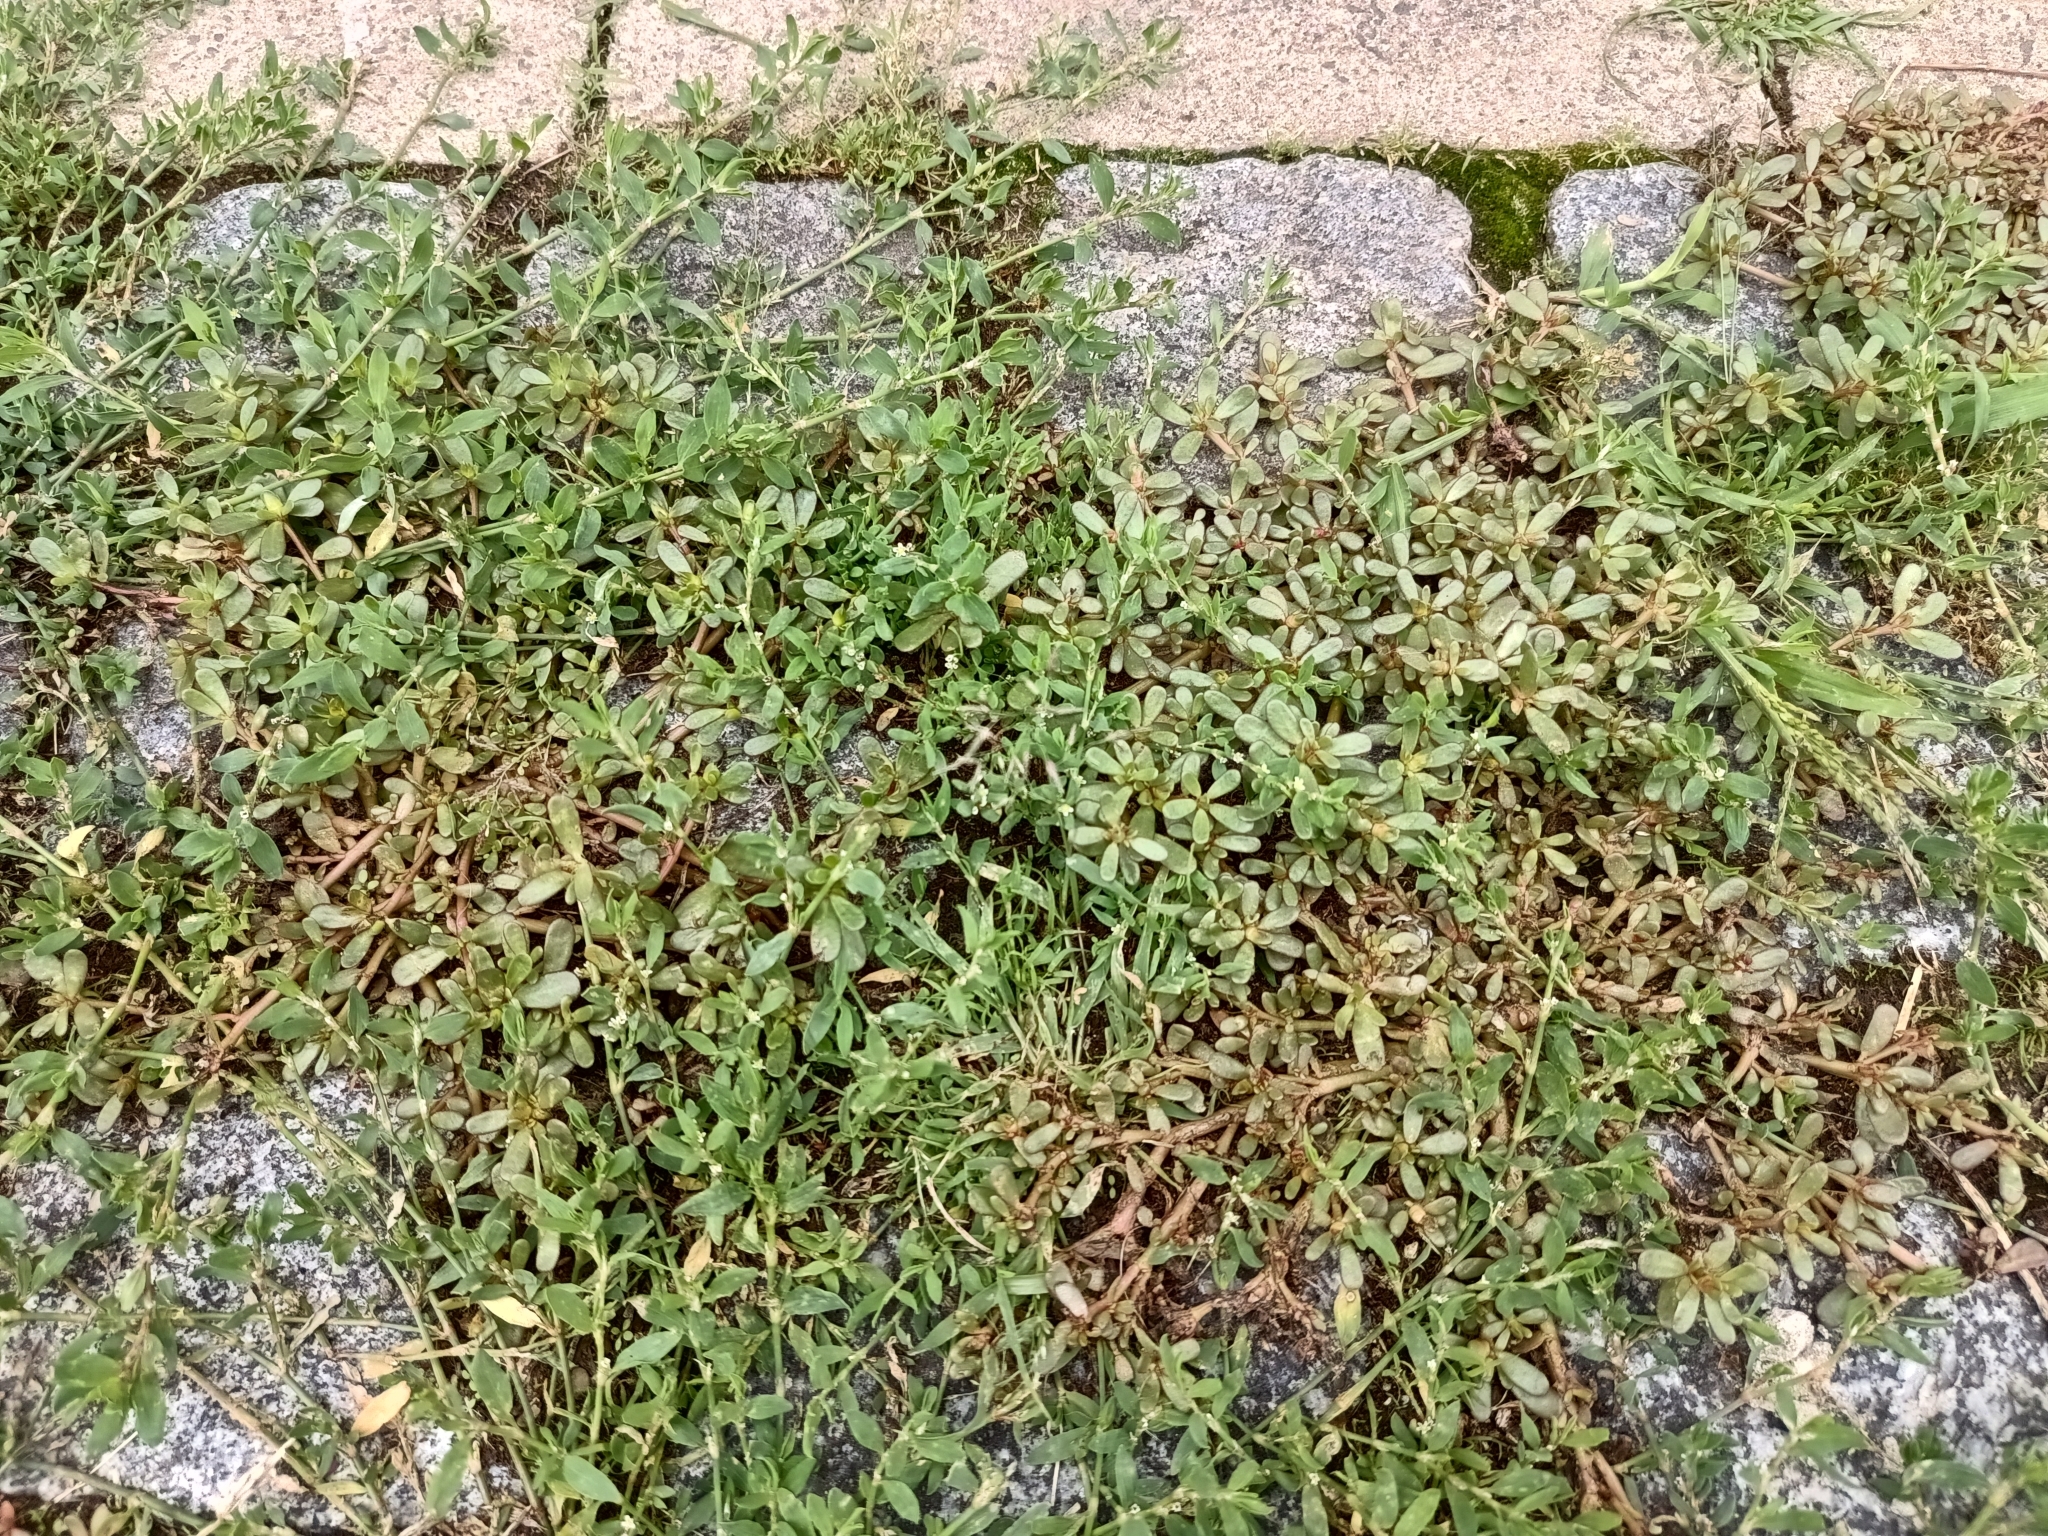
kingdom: Plantae
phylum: Tracheophyta
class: Magnoliopsida
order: Caryophyllales
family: Portulacaceae
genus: Portulaca
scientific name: Portulaca oleracea
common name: Common purslane
